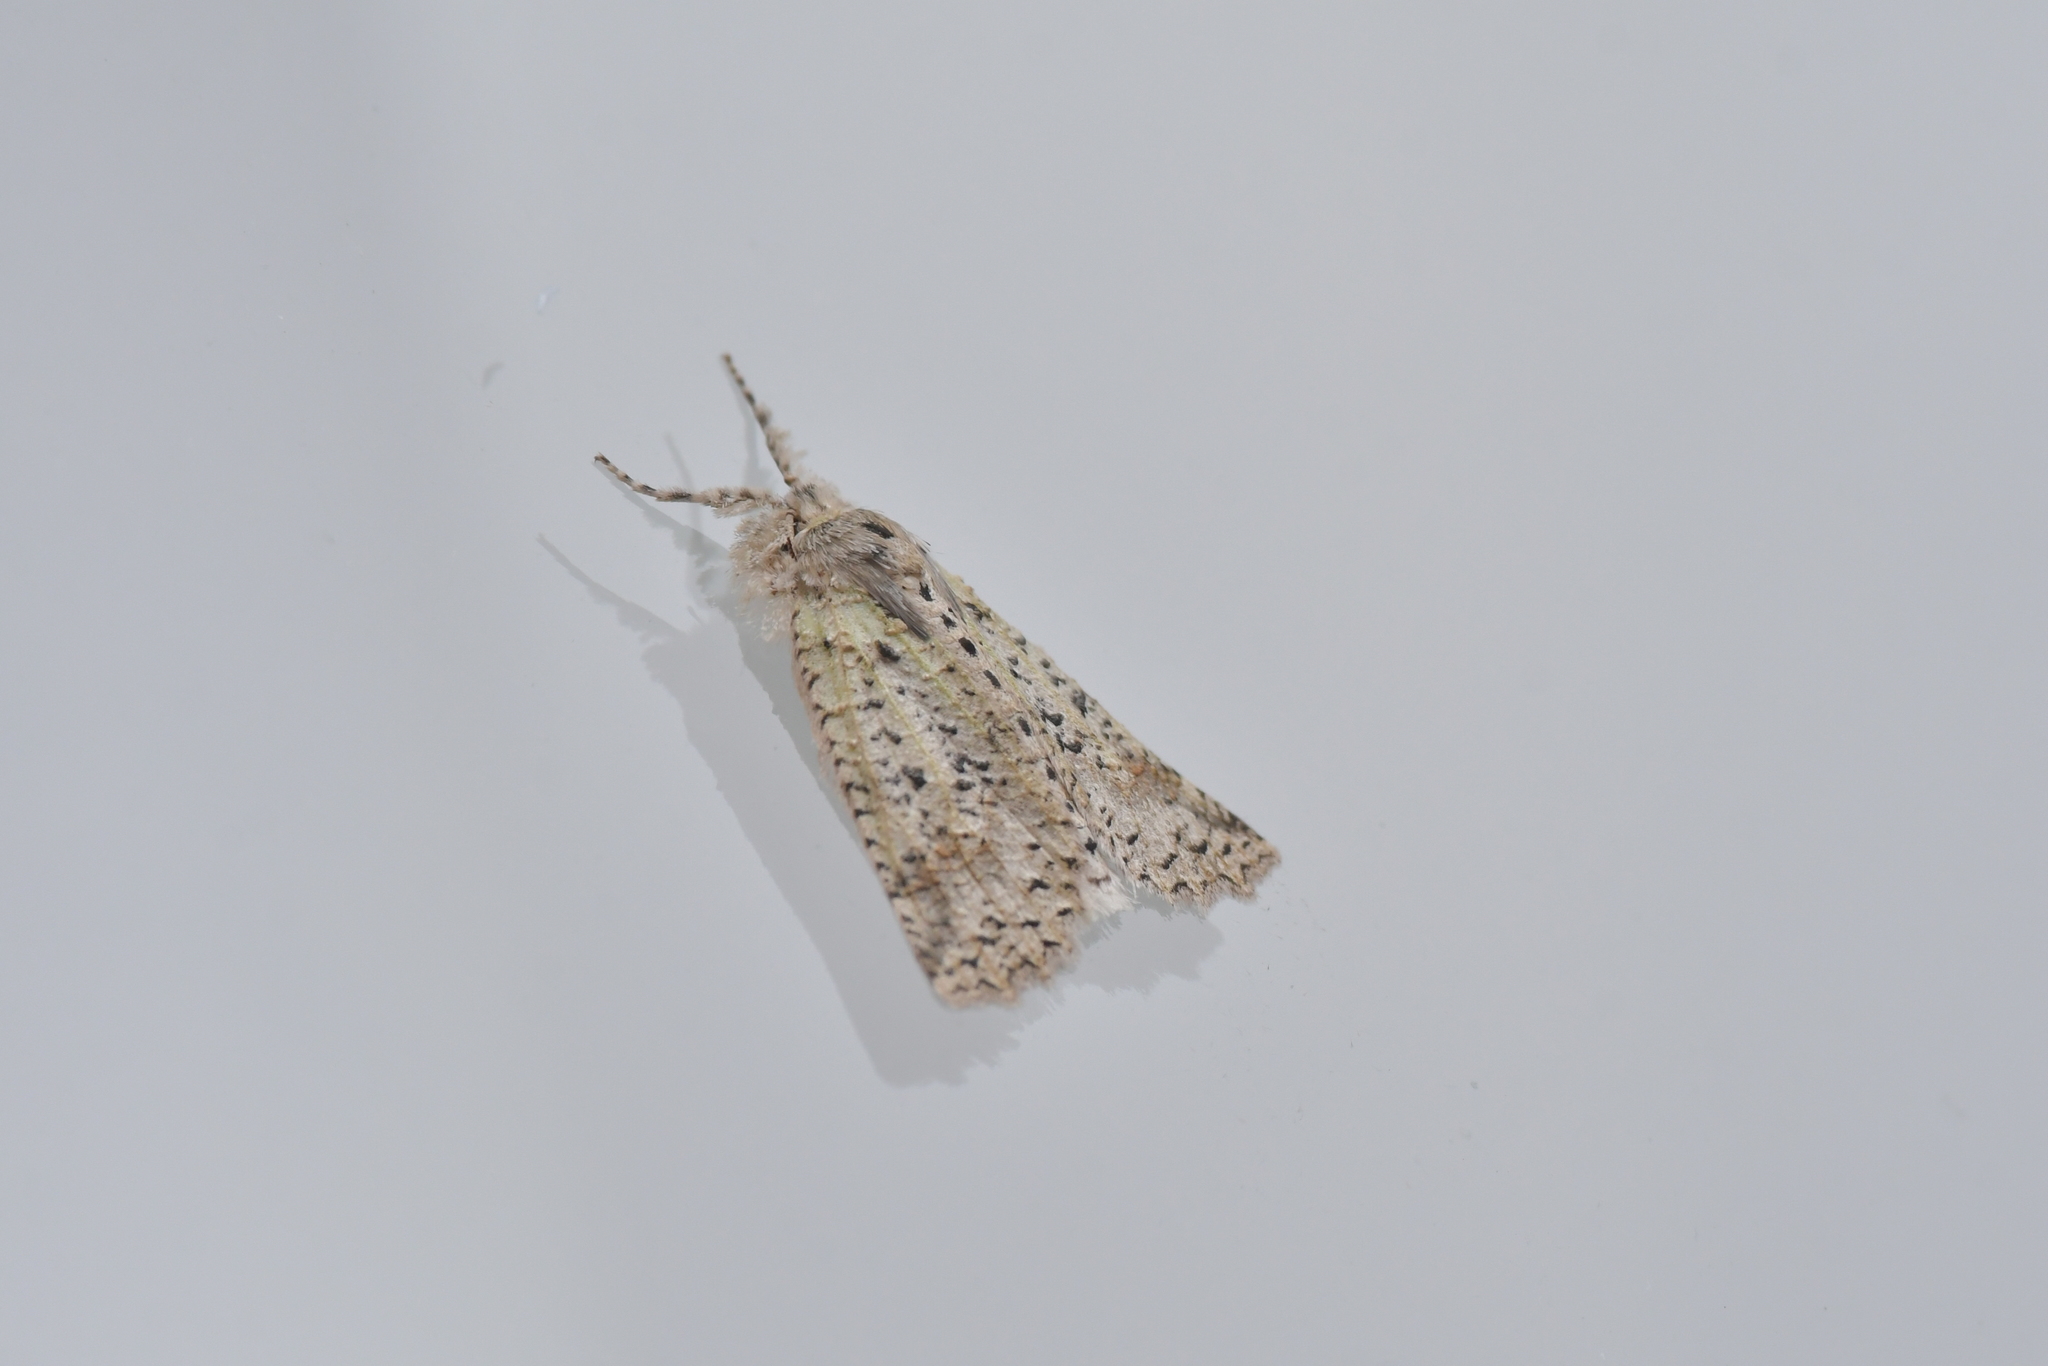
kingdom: Animalia
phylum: Arthropoda
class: Insecta
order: Lepidoptera
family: Geometridae
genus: Declana
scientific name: Declana floccosa
